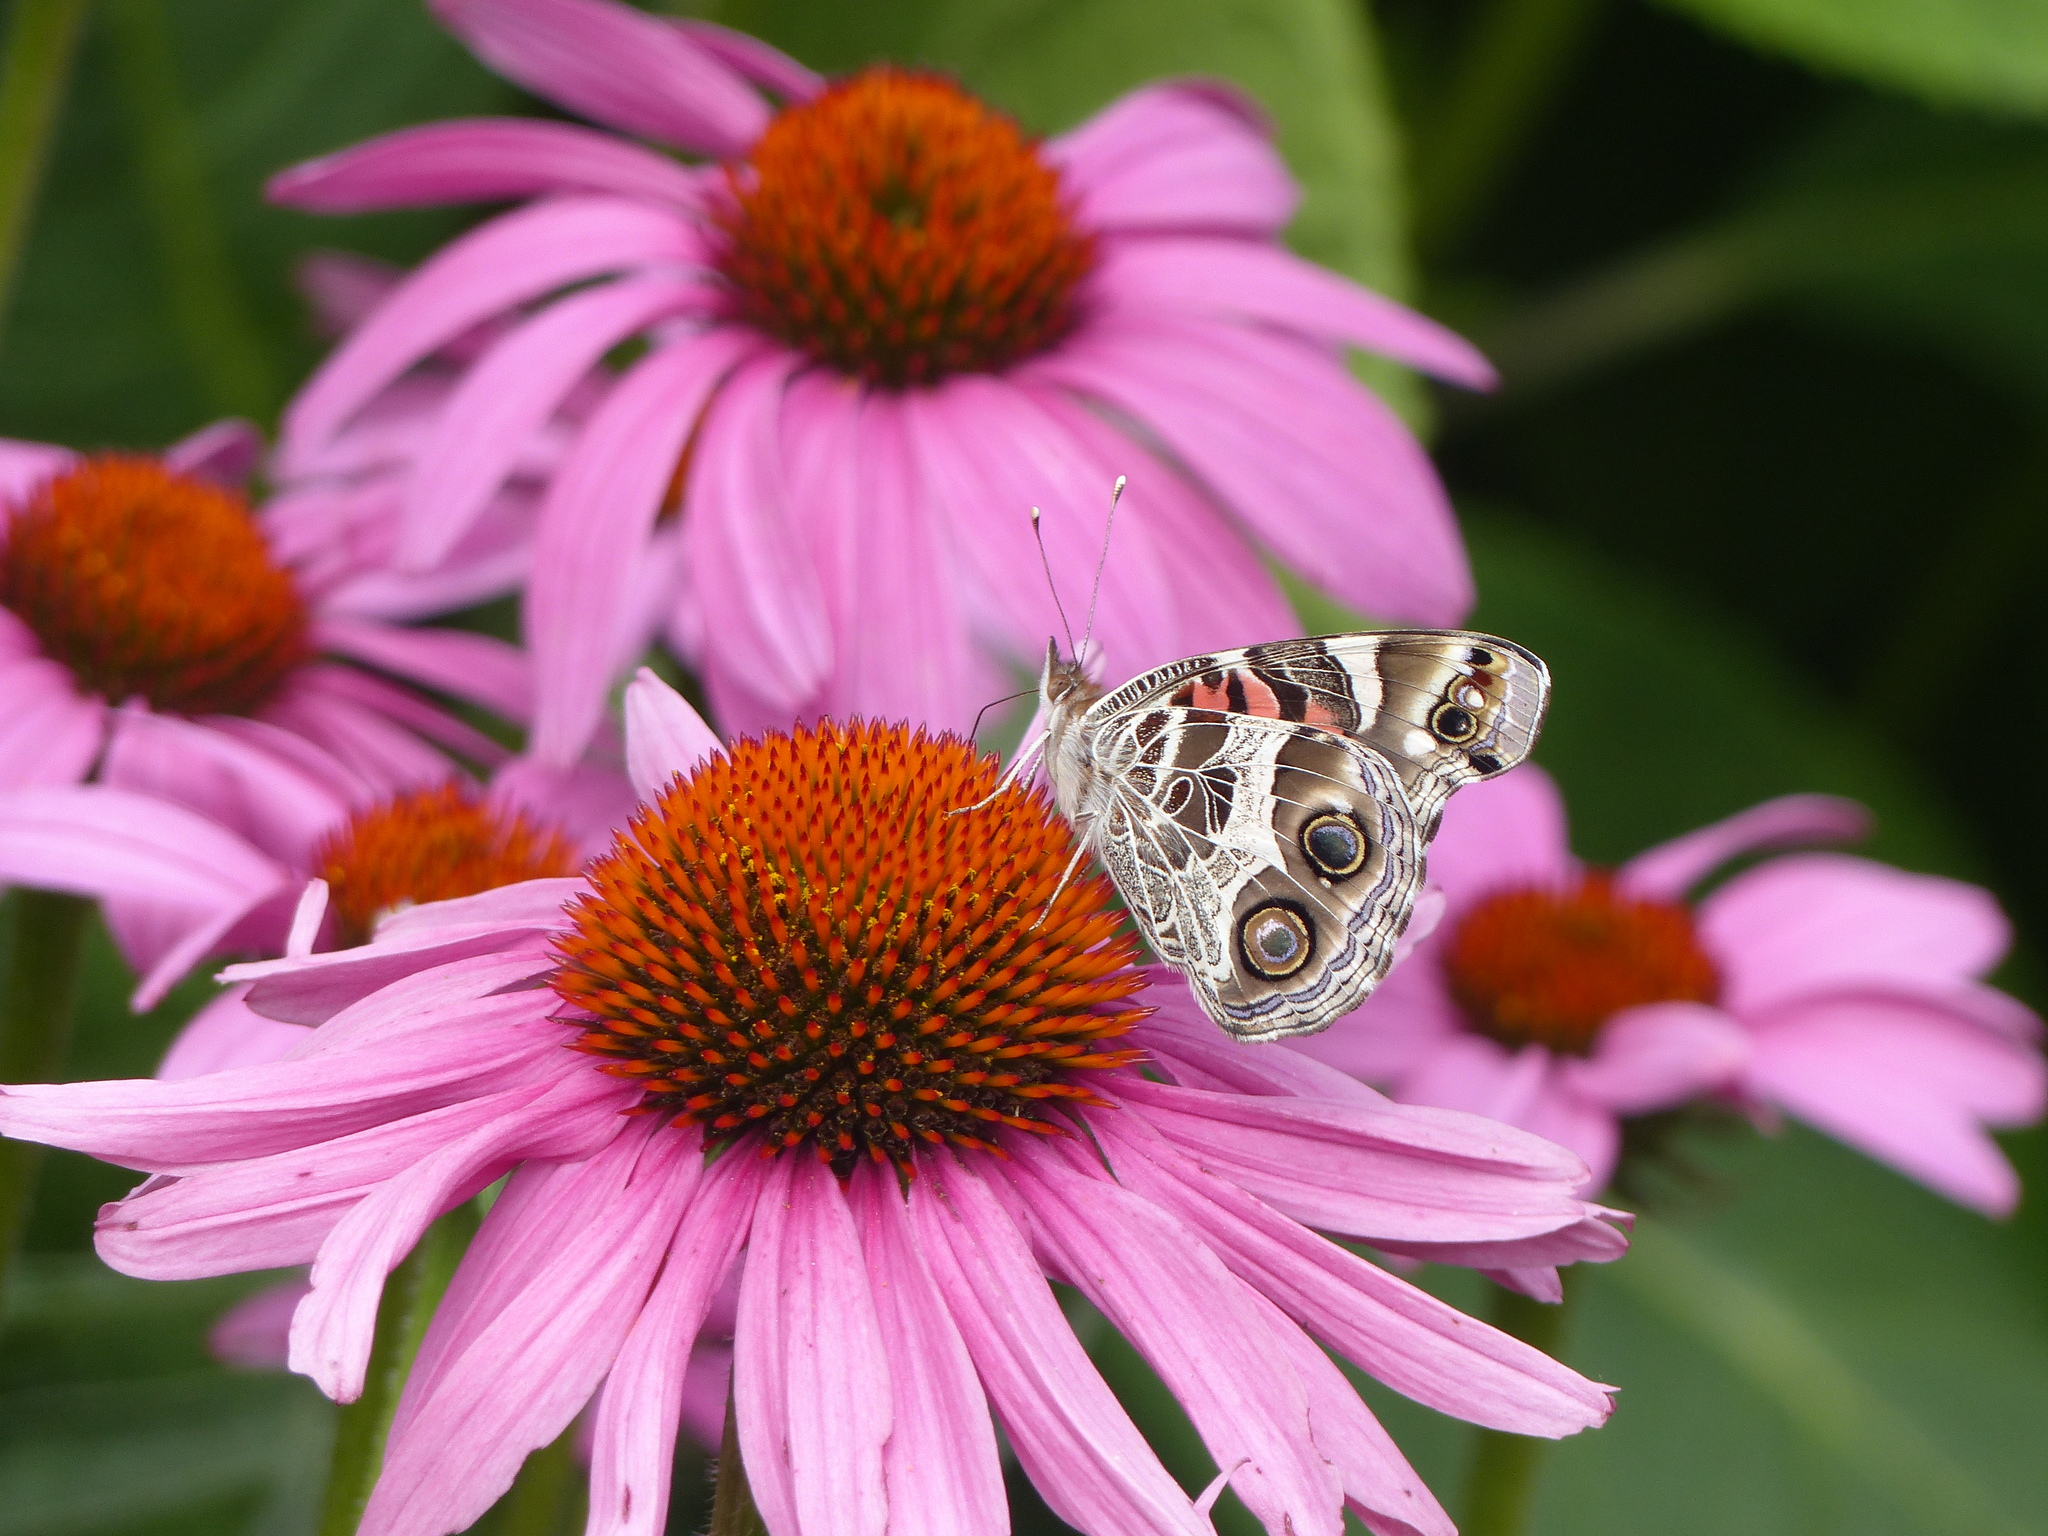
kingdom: Animalia
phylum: Arthropoda
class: Insecta
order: Lepidoptera
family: Nymphalidae
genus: Vanessa
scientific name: Vanessa virginiensis
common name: American lady
